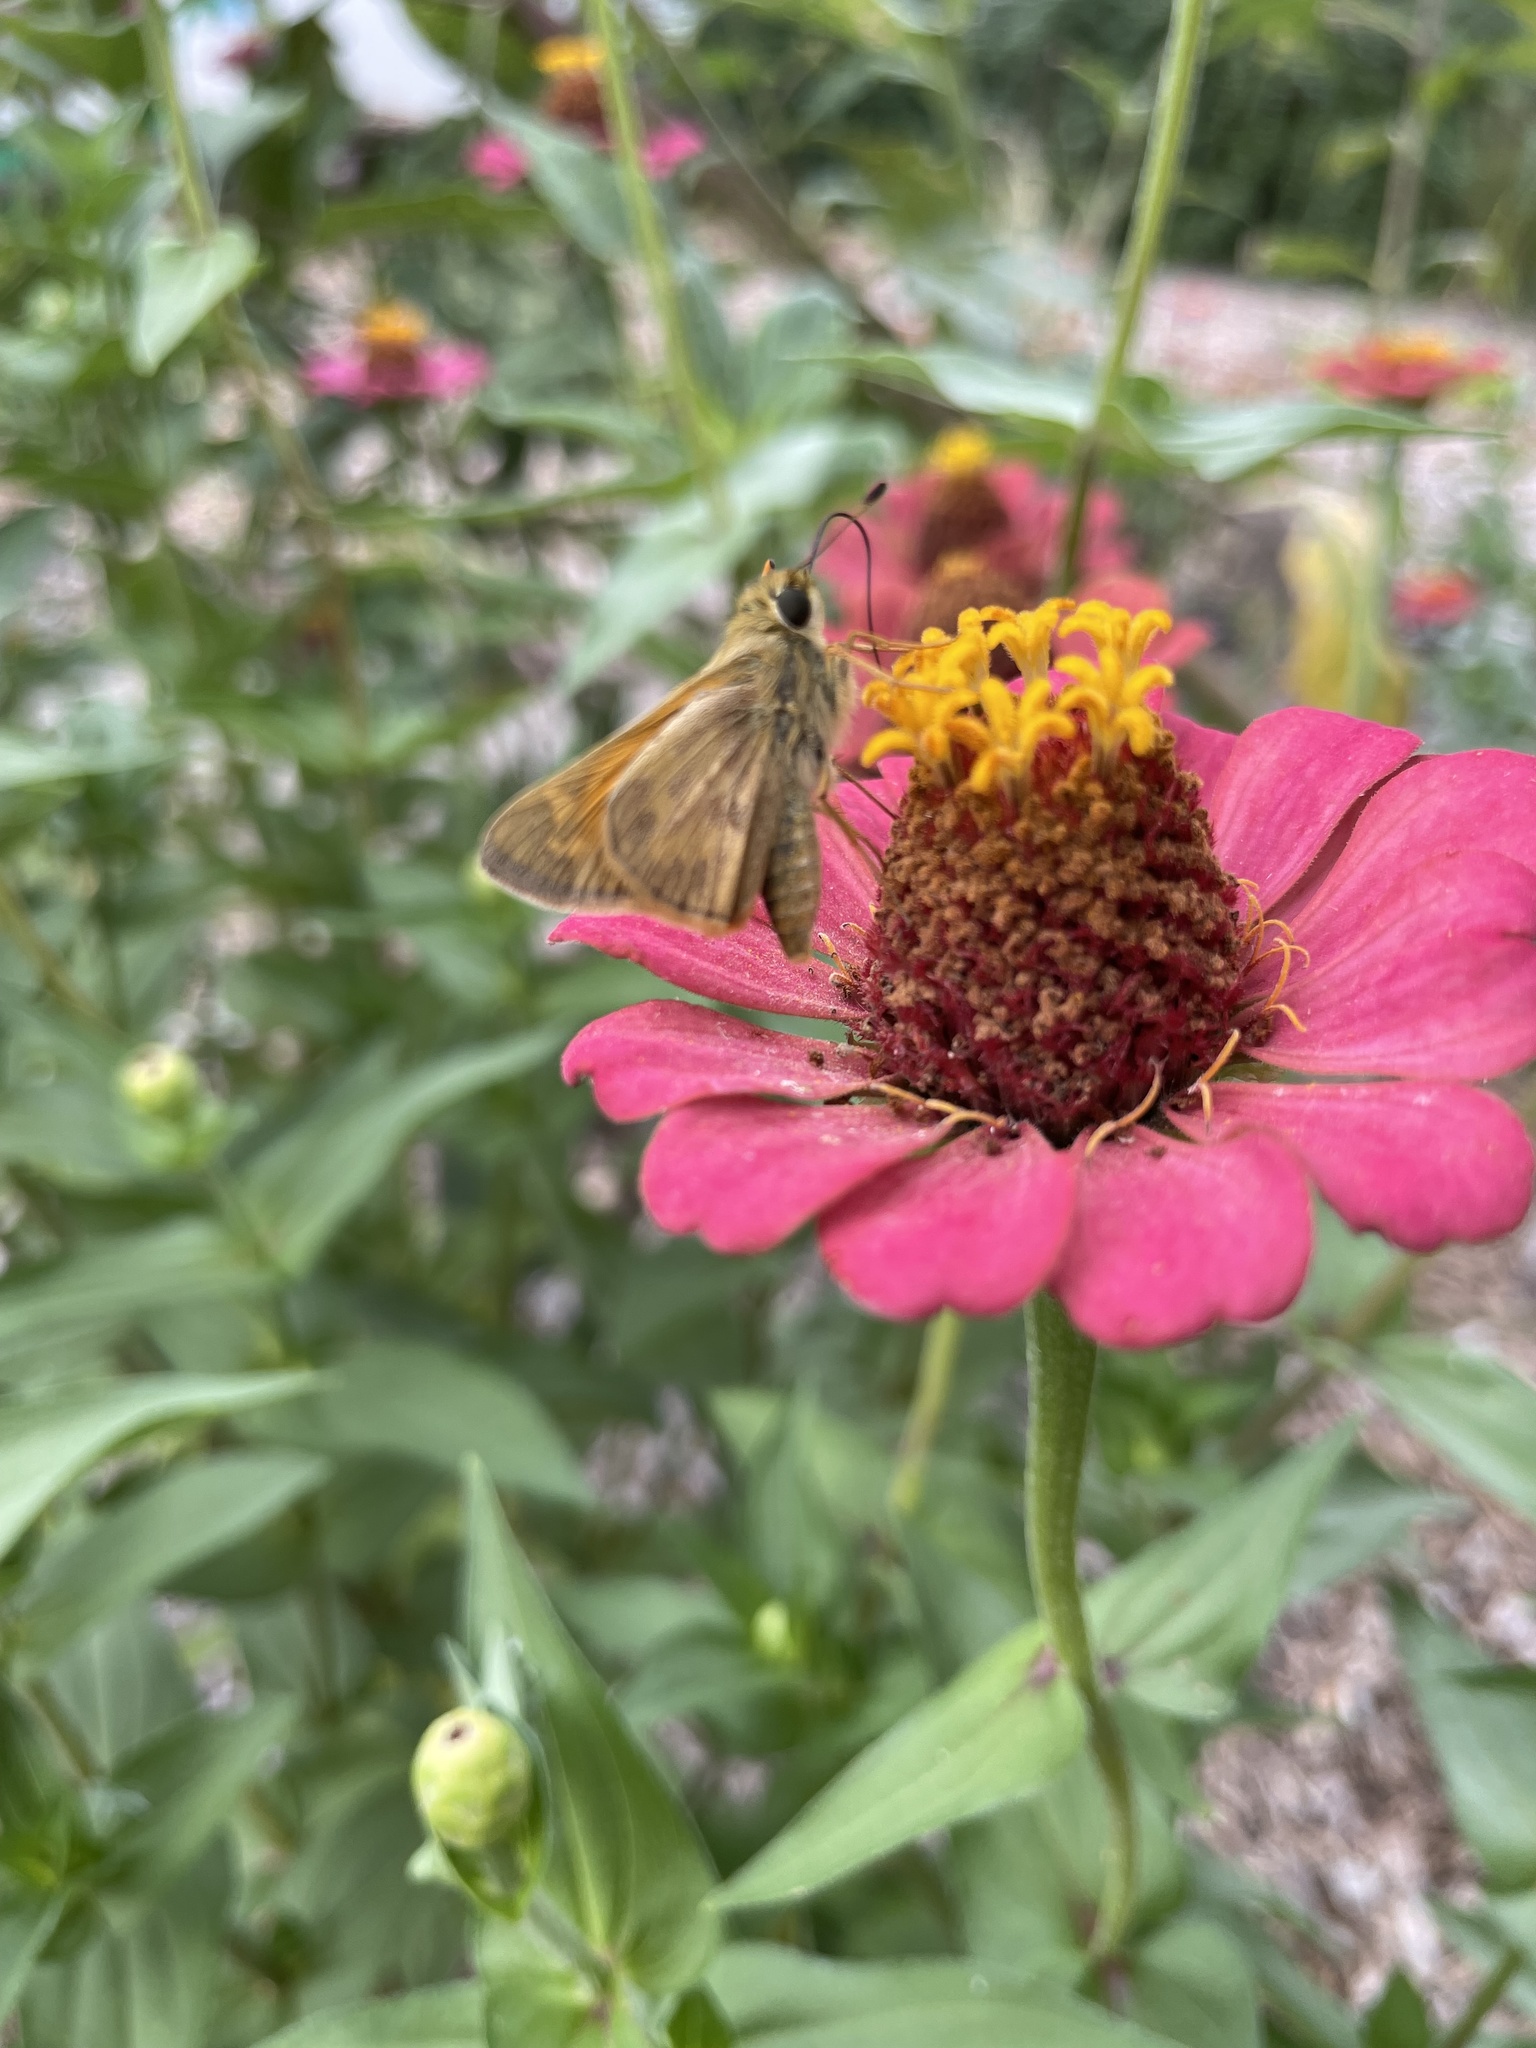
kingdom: Animalia
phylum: Arthropoda
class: Insecta
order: Lepidoptera
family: Hesperiidae
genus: Atalopedes
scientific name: Atalopedes
